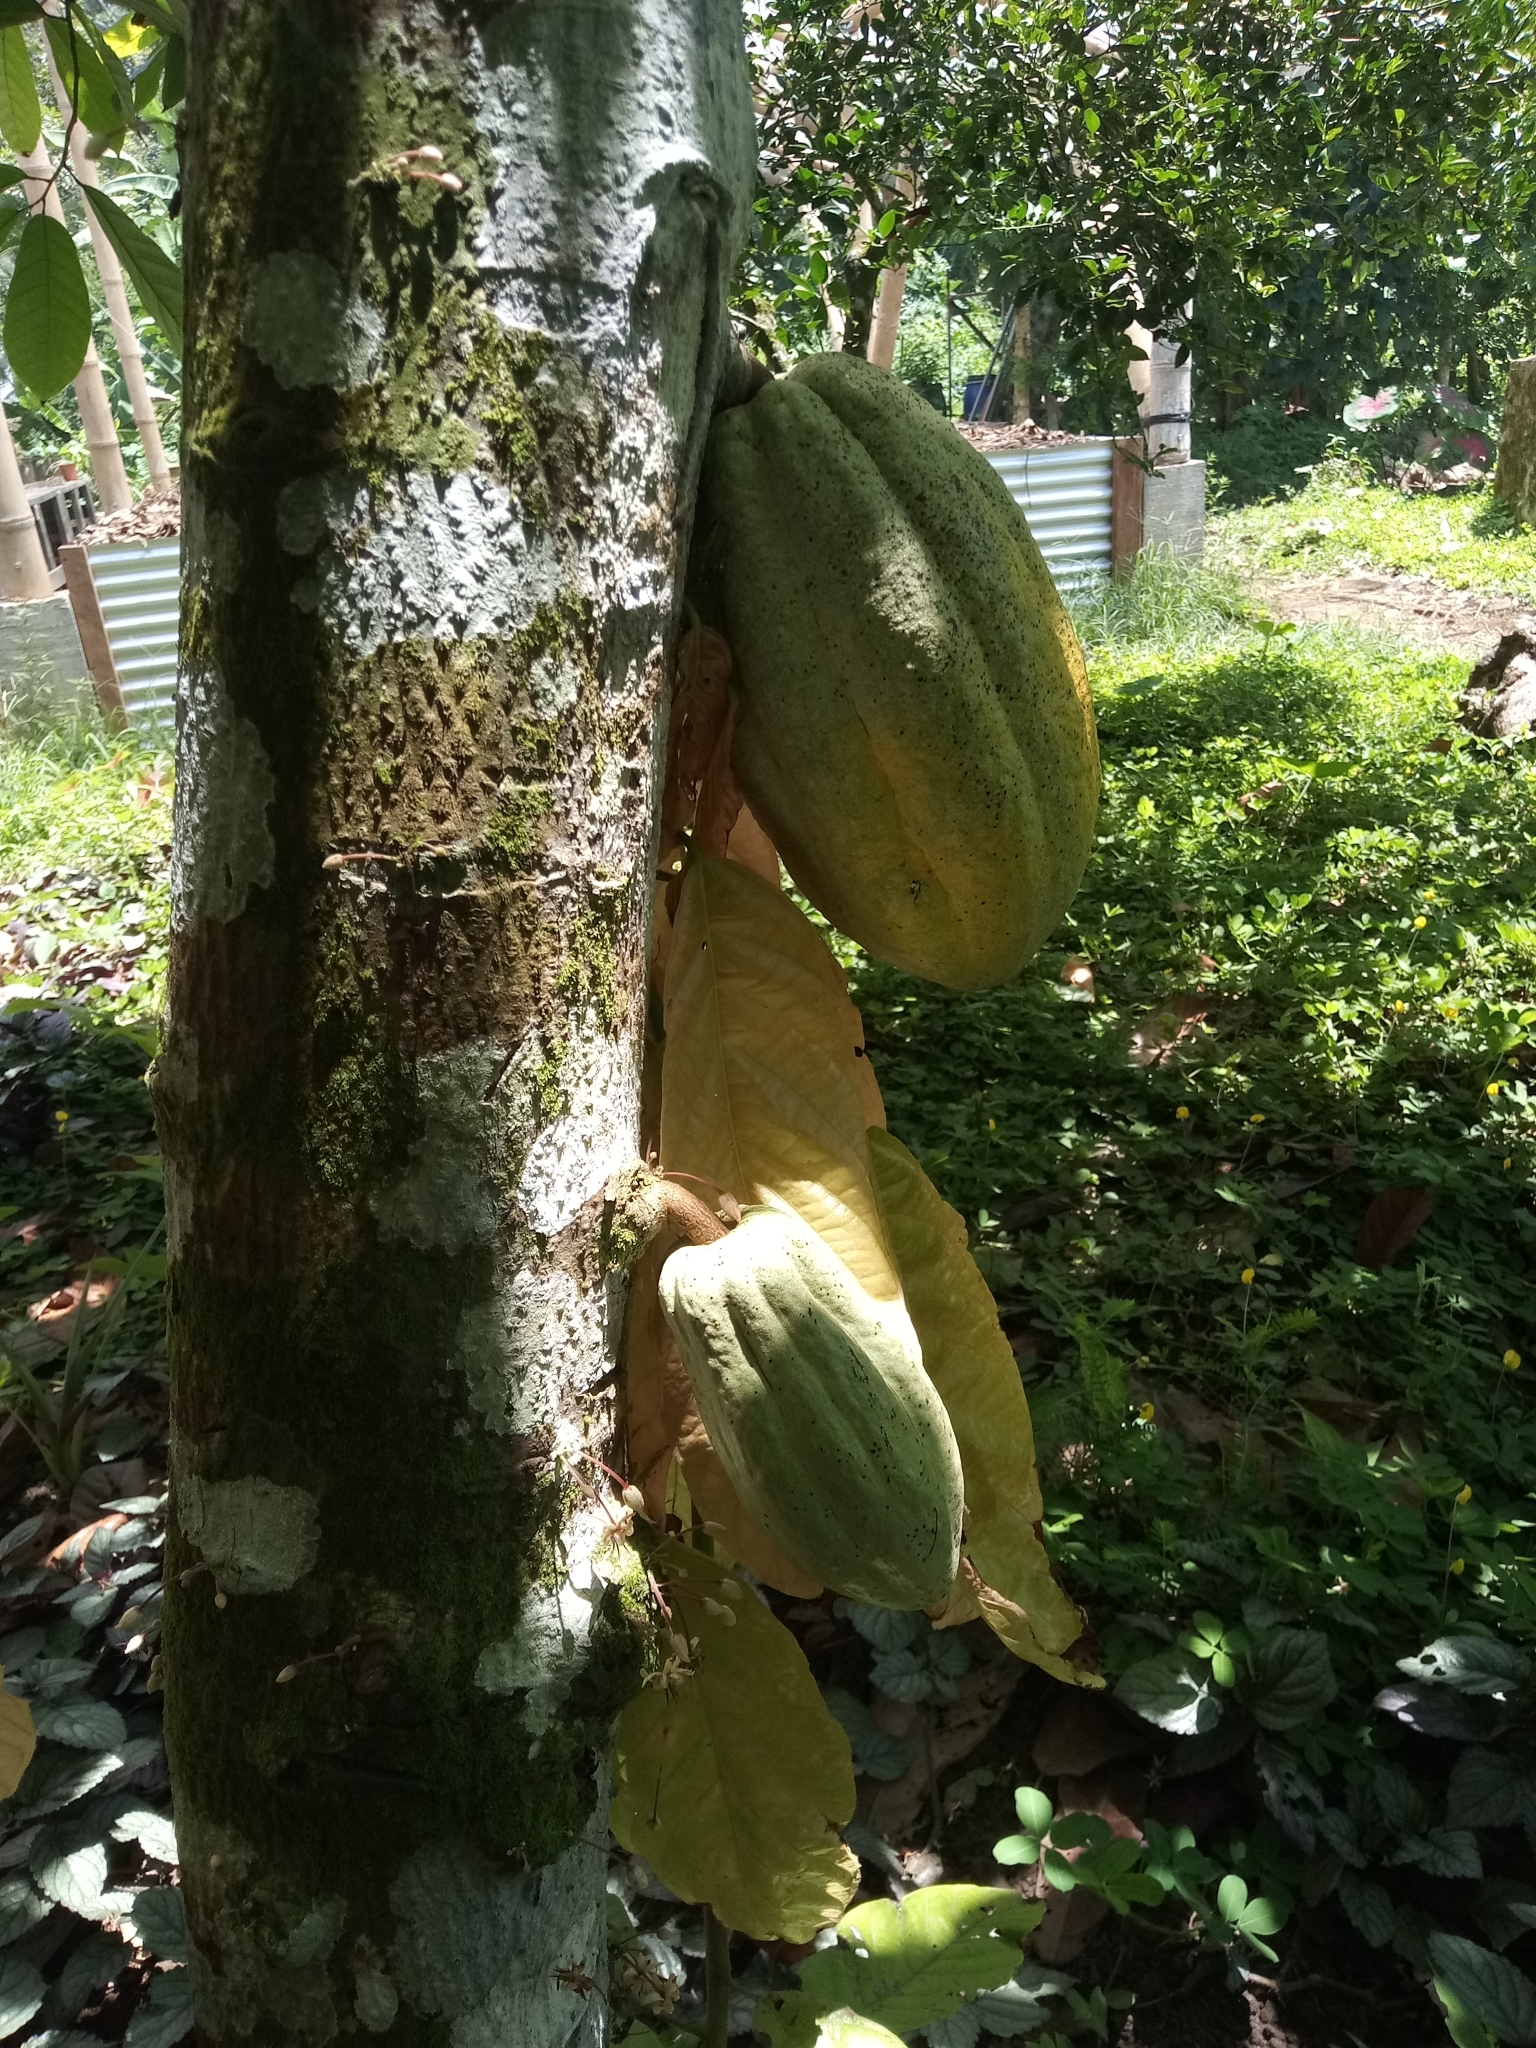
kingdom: Plantae
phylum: Tracheophyta
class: Magnoliopsida
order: Malvales
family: Malvaceae
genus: Theobroma
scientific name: Theobroma cacao
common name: Cocoa
